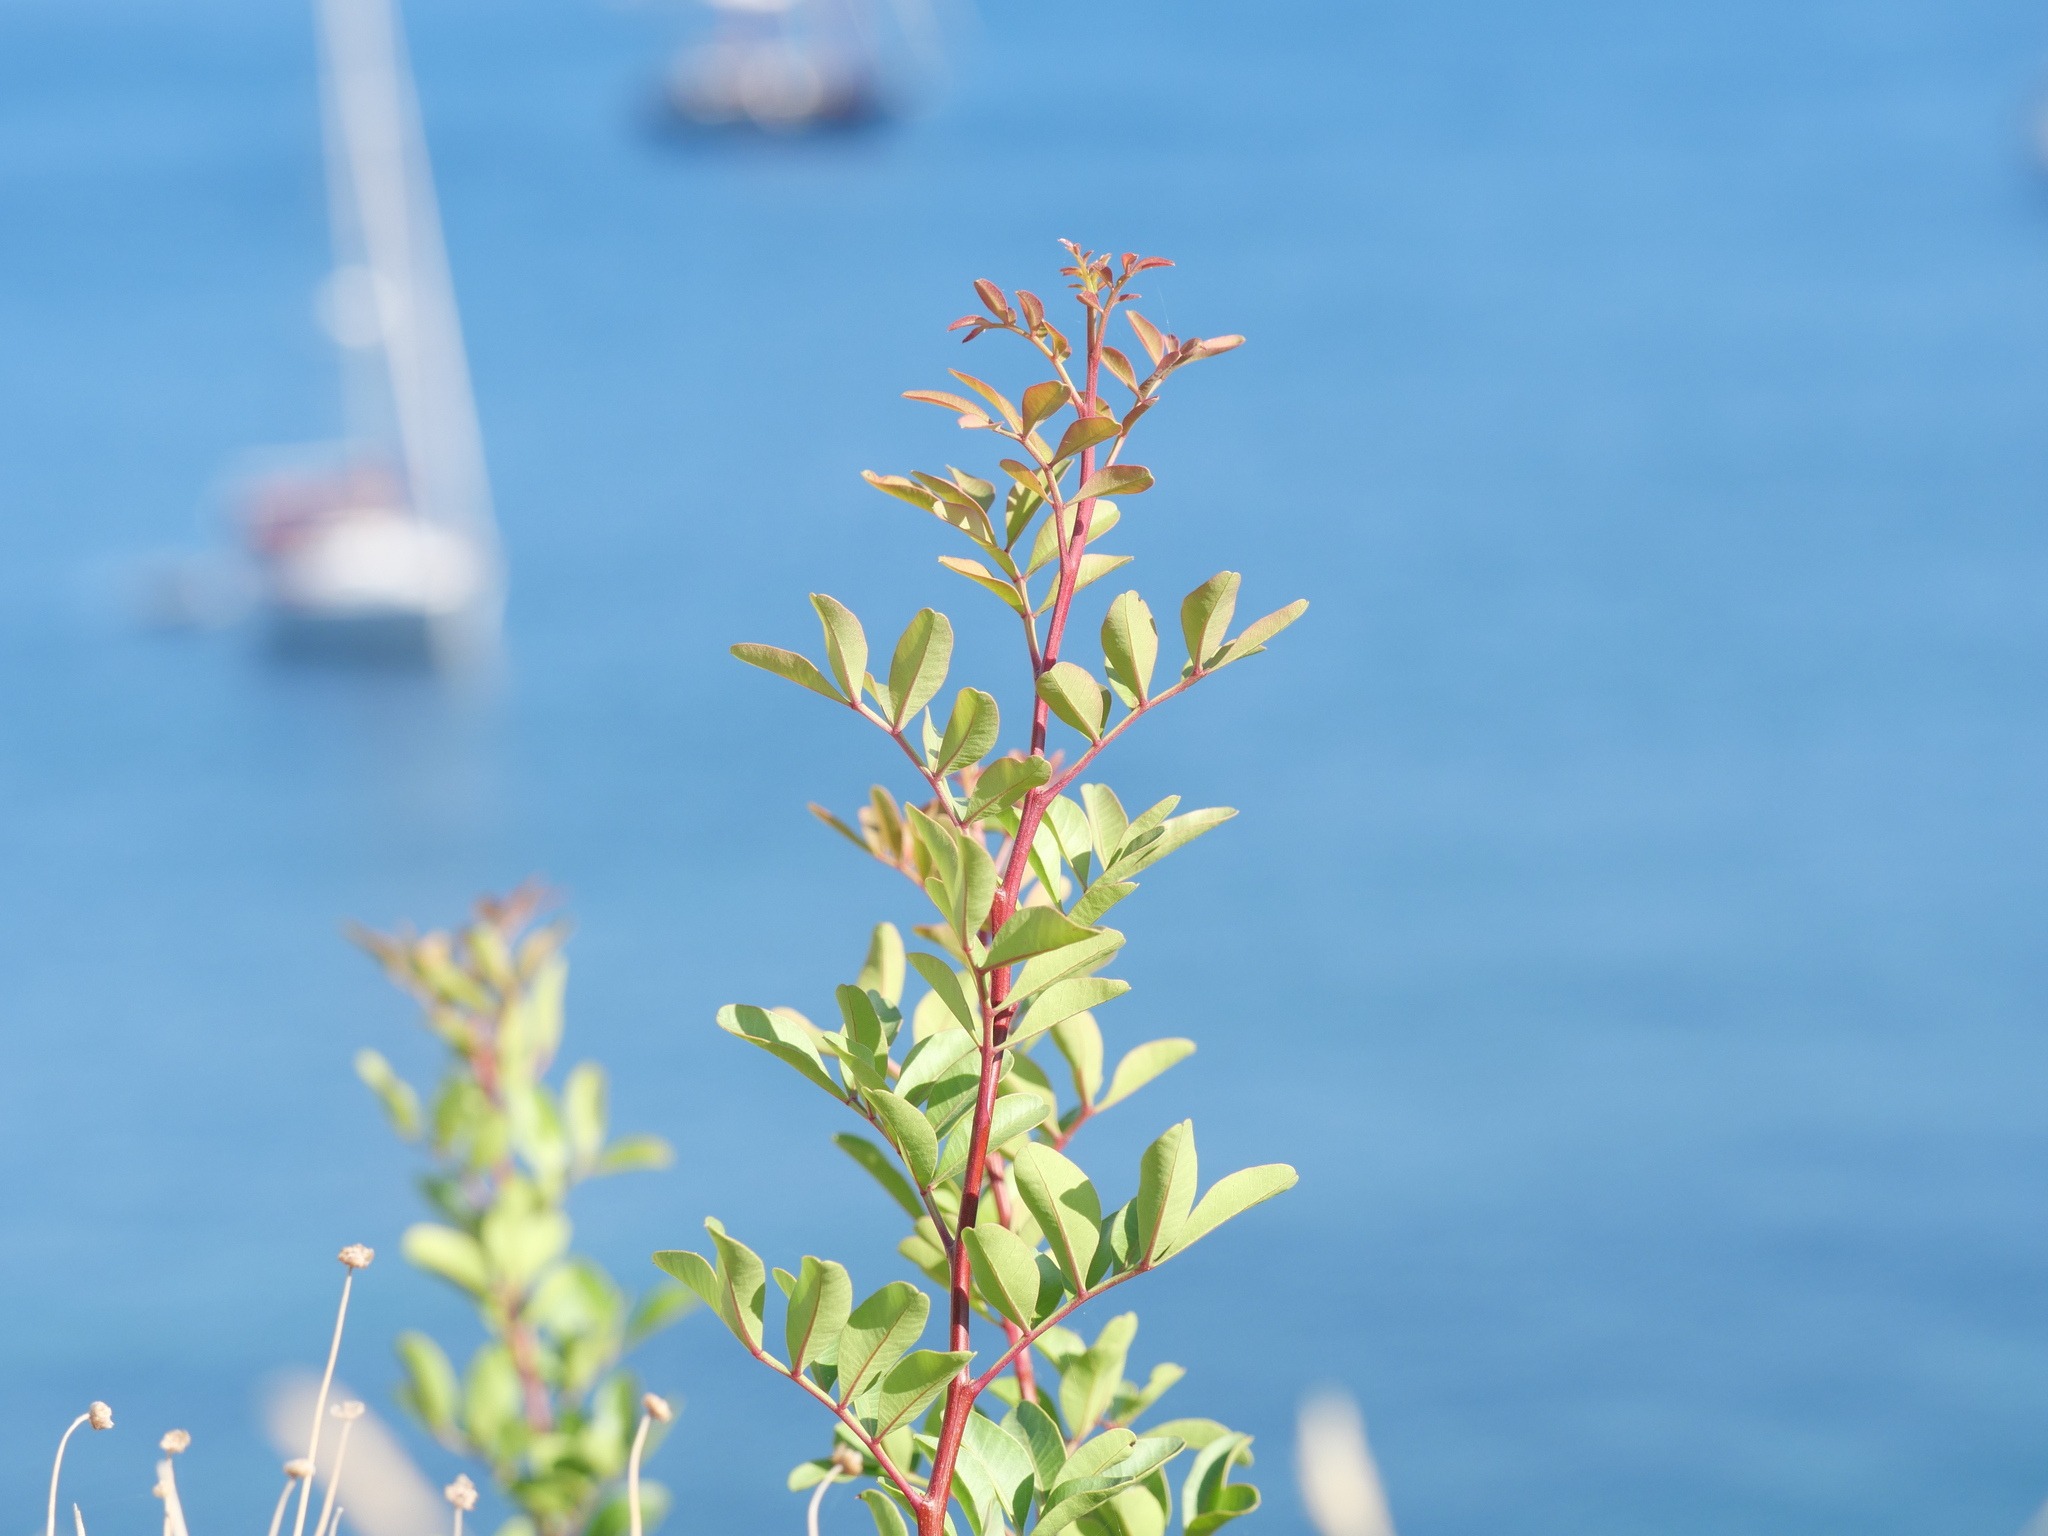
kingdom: Plantae
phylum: Tracheophyta
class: Magnoliopsida
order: Sapindales
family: Anacardiaceae
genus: Pistacia
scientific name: Pistacia lentiscus
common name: Lentisk
